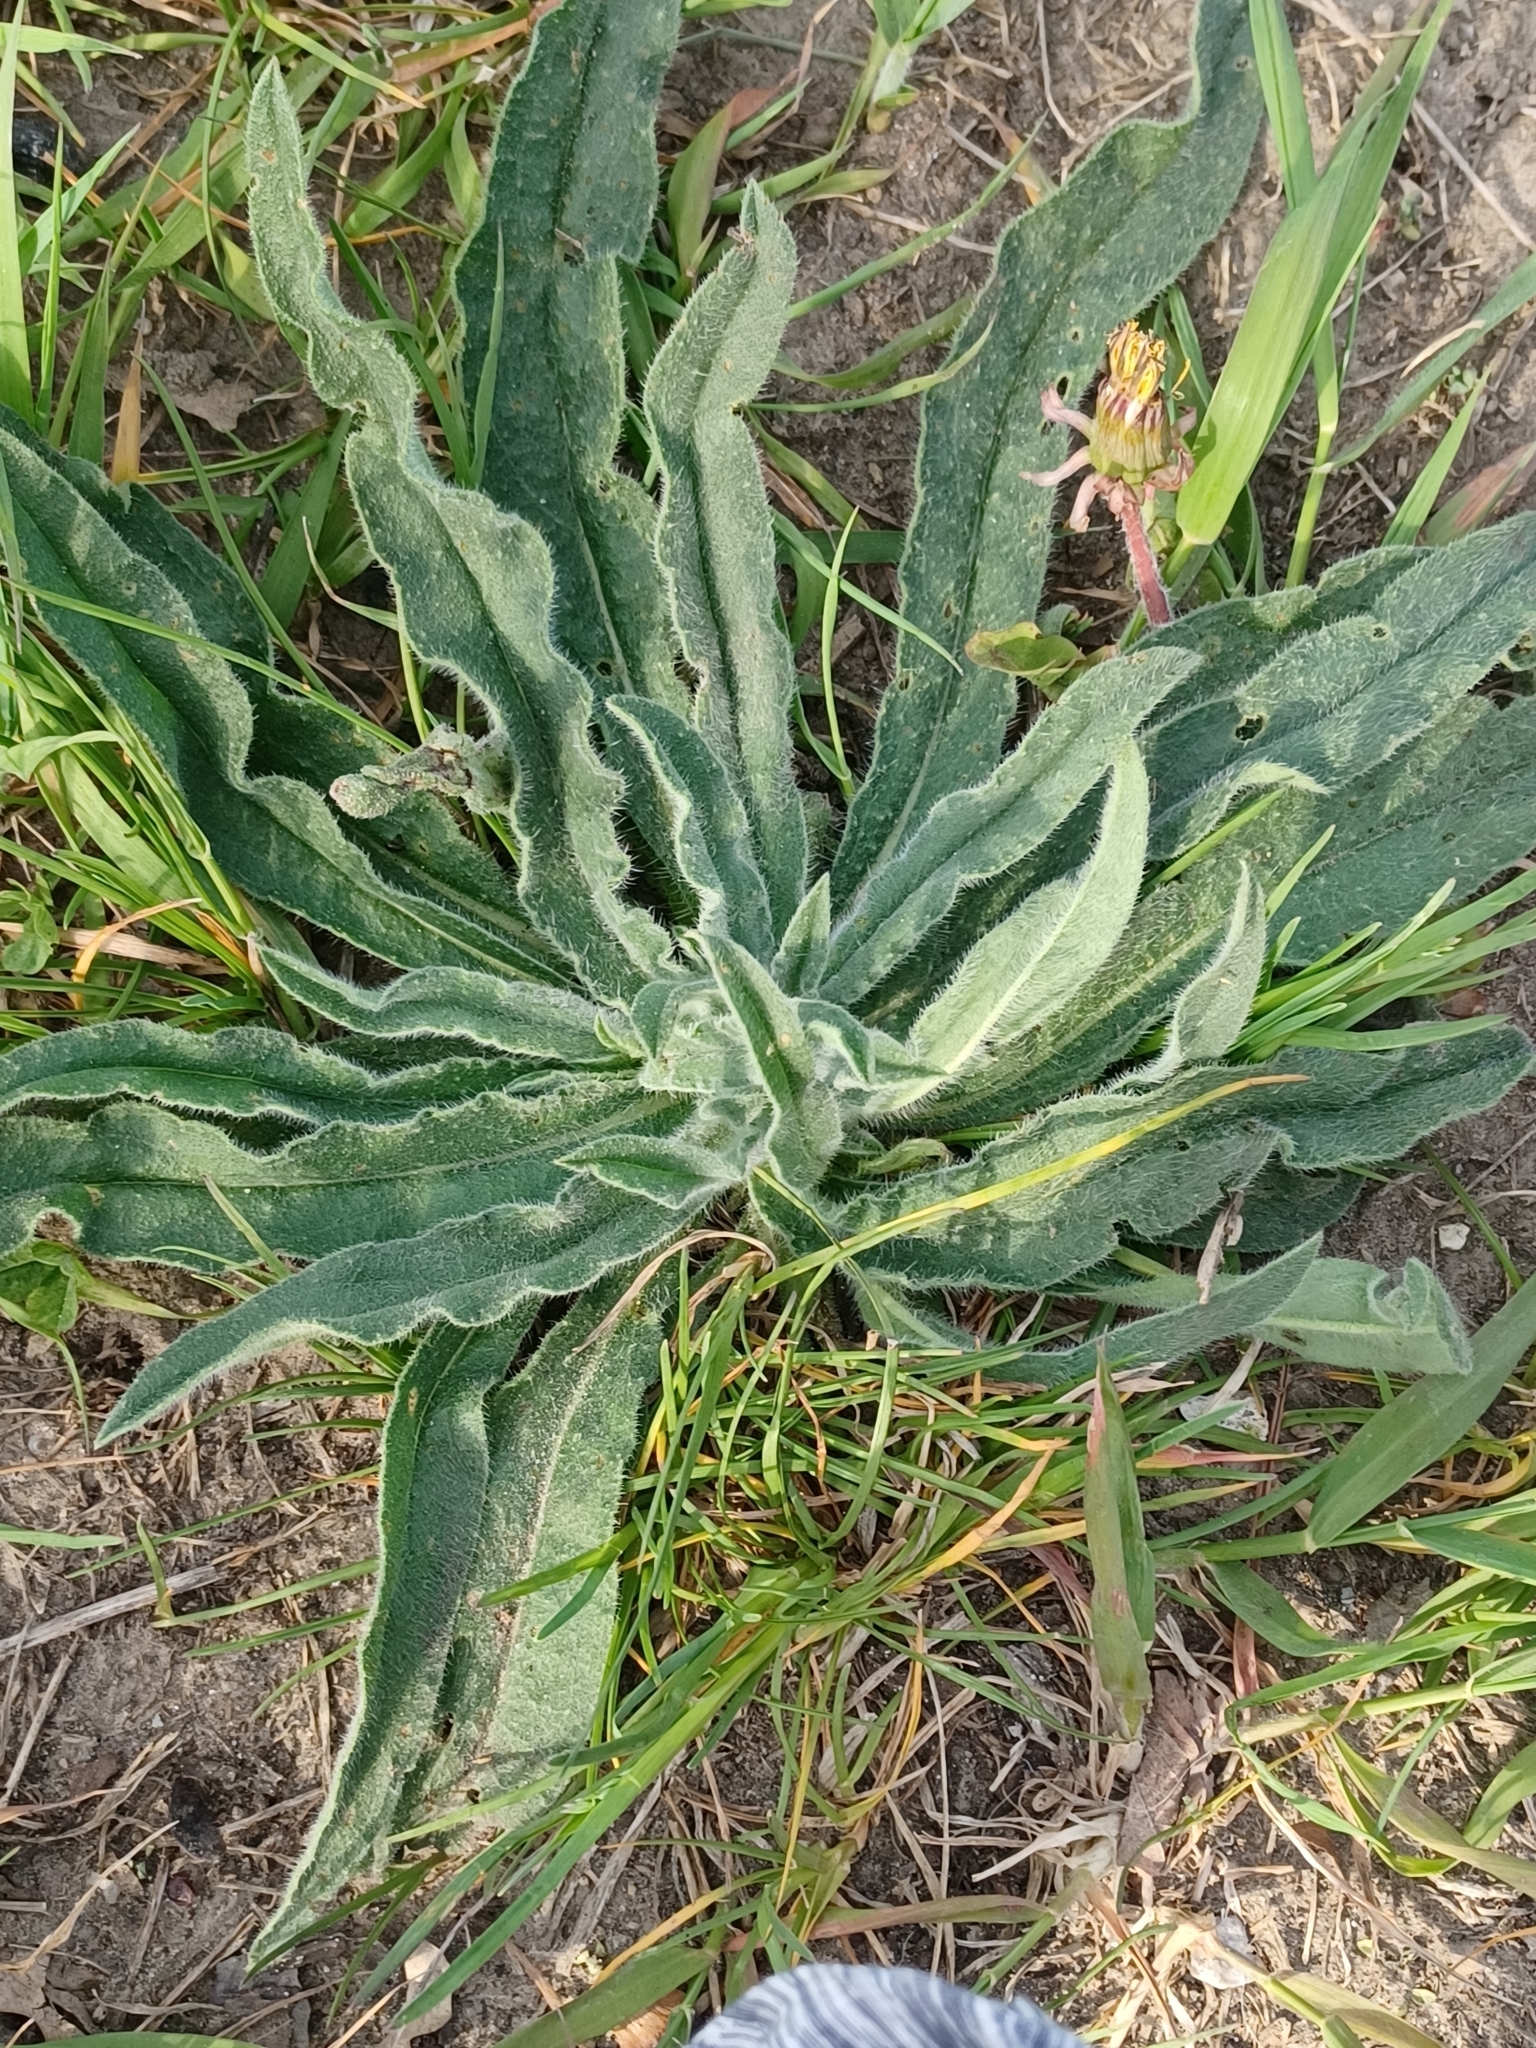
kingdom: Plantae
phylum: Tracheophyta
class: Magnoliopsida
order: Boraginales
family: Boraginaceae
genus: Echium
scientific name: Echium vulgare
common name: Common viper's bugloss
